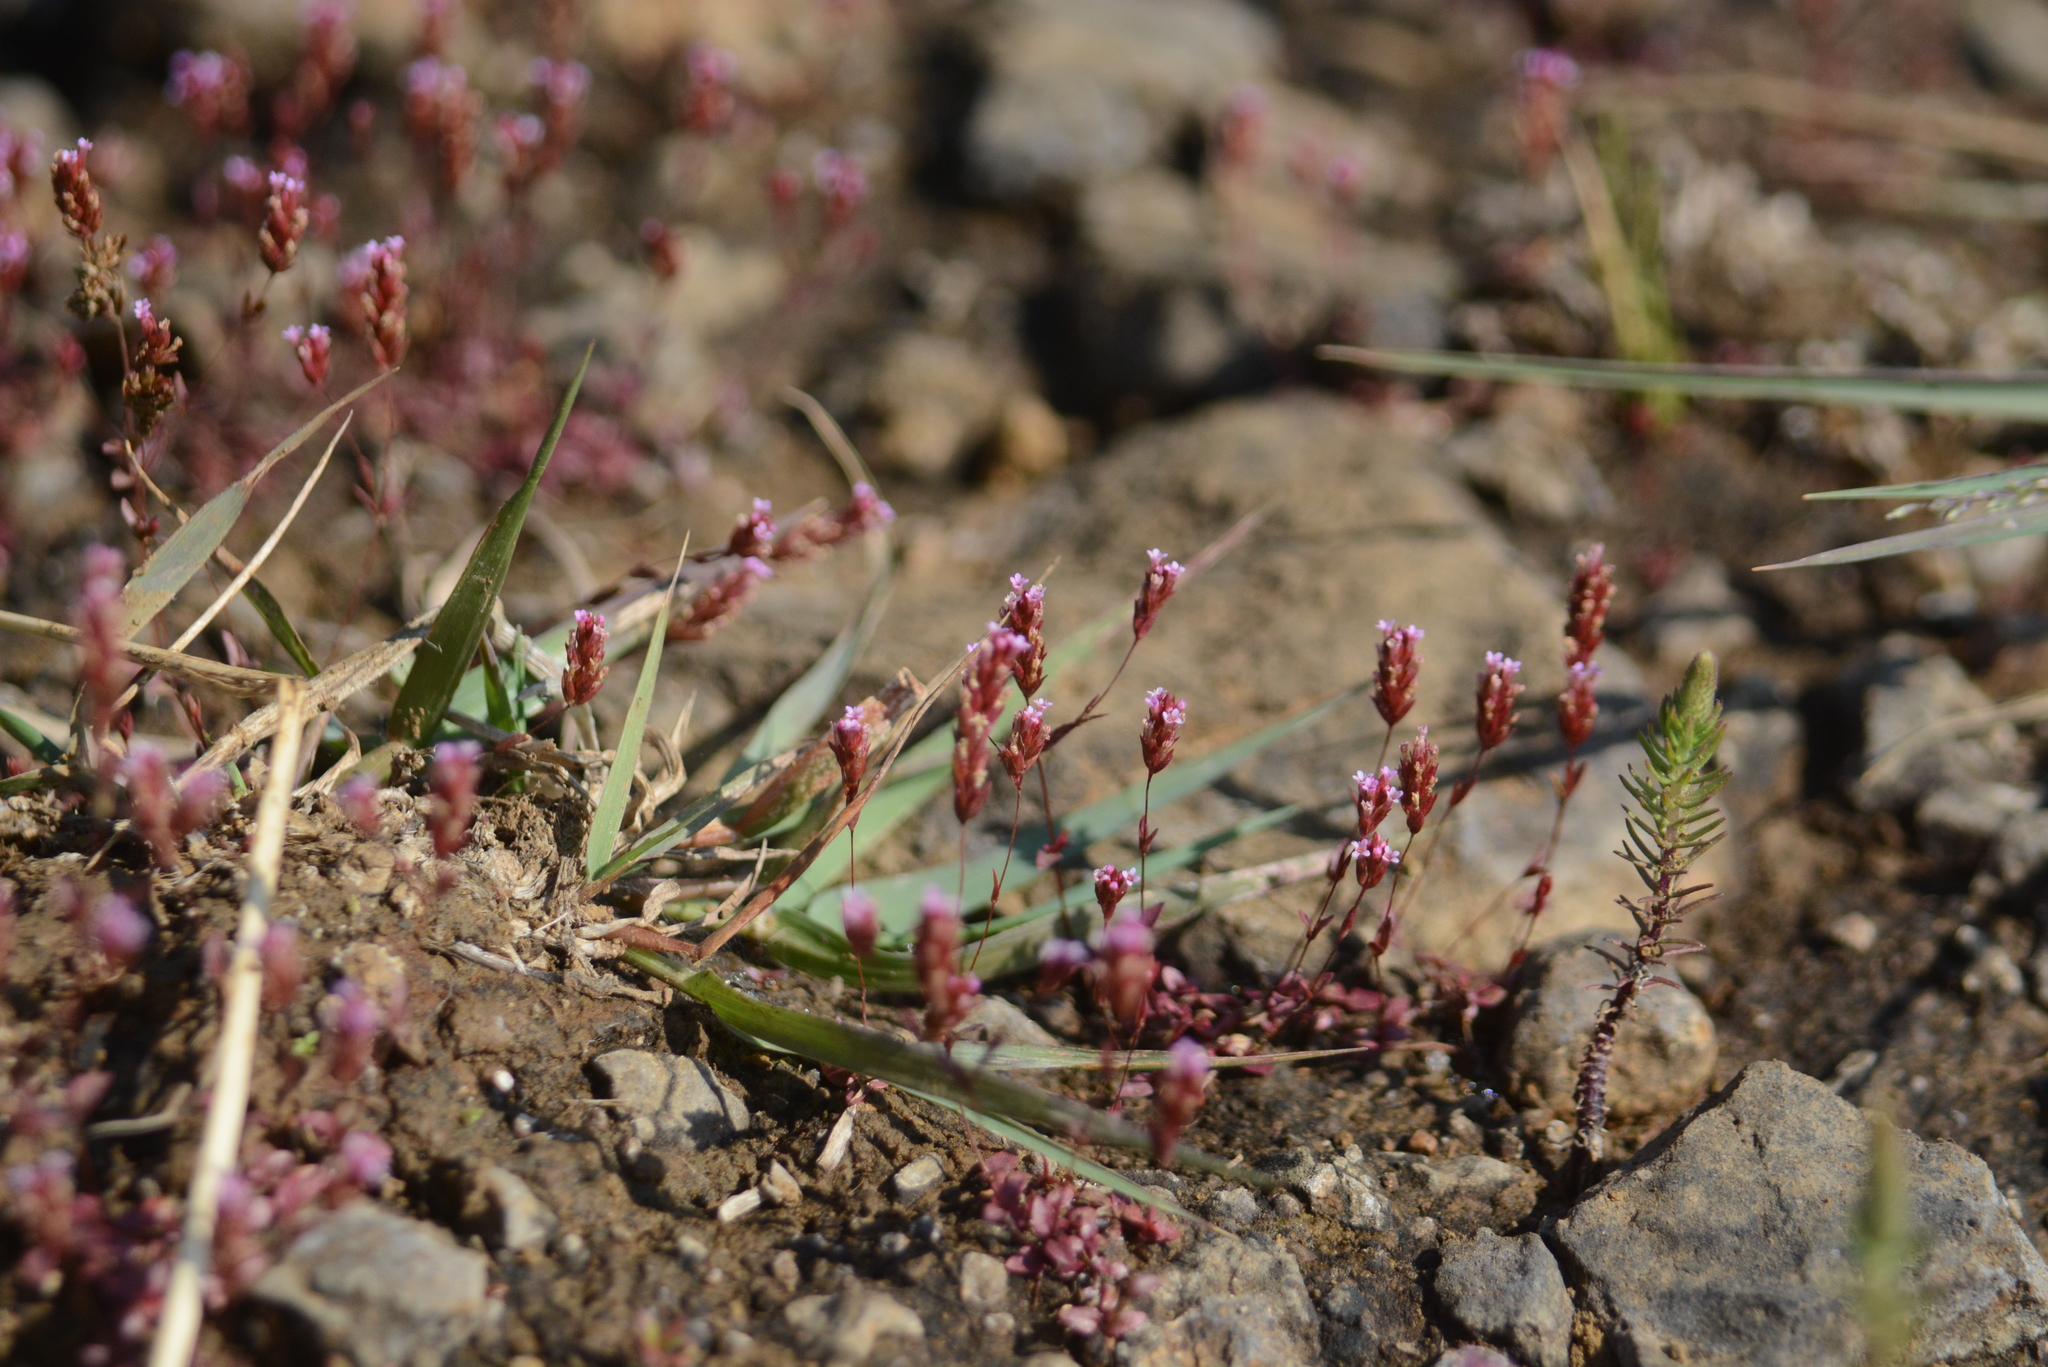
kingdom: Plantae
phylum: Tracheophyta
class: Magnoliopsida
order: Myrtales
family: Lythraceae
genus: Rotala
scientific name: Rotala
